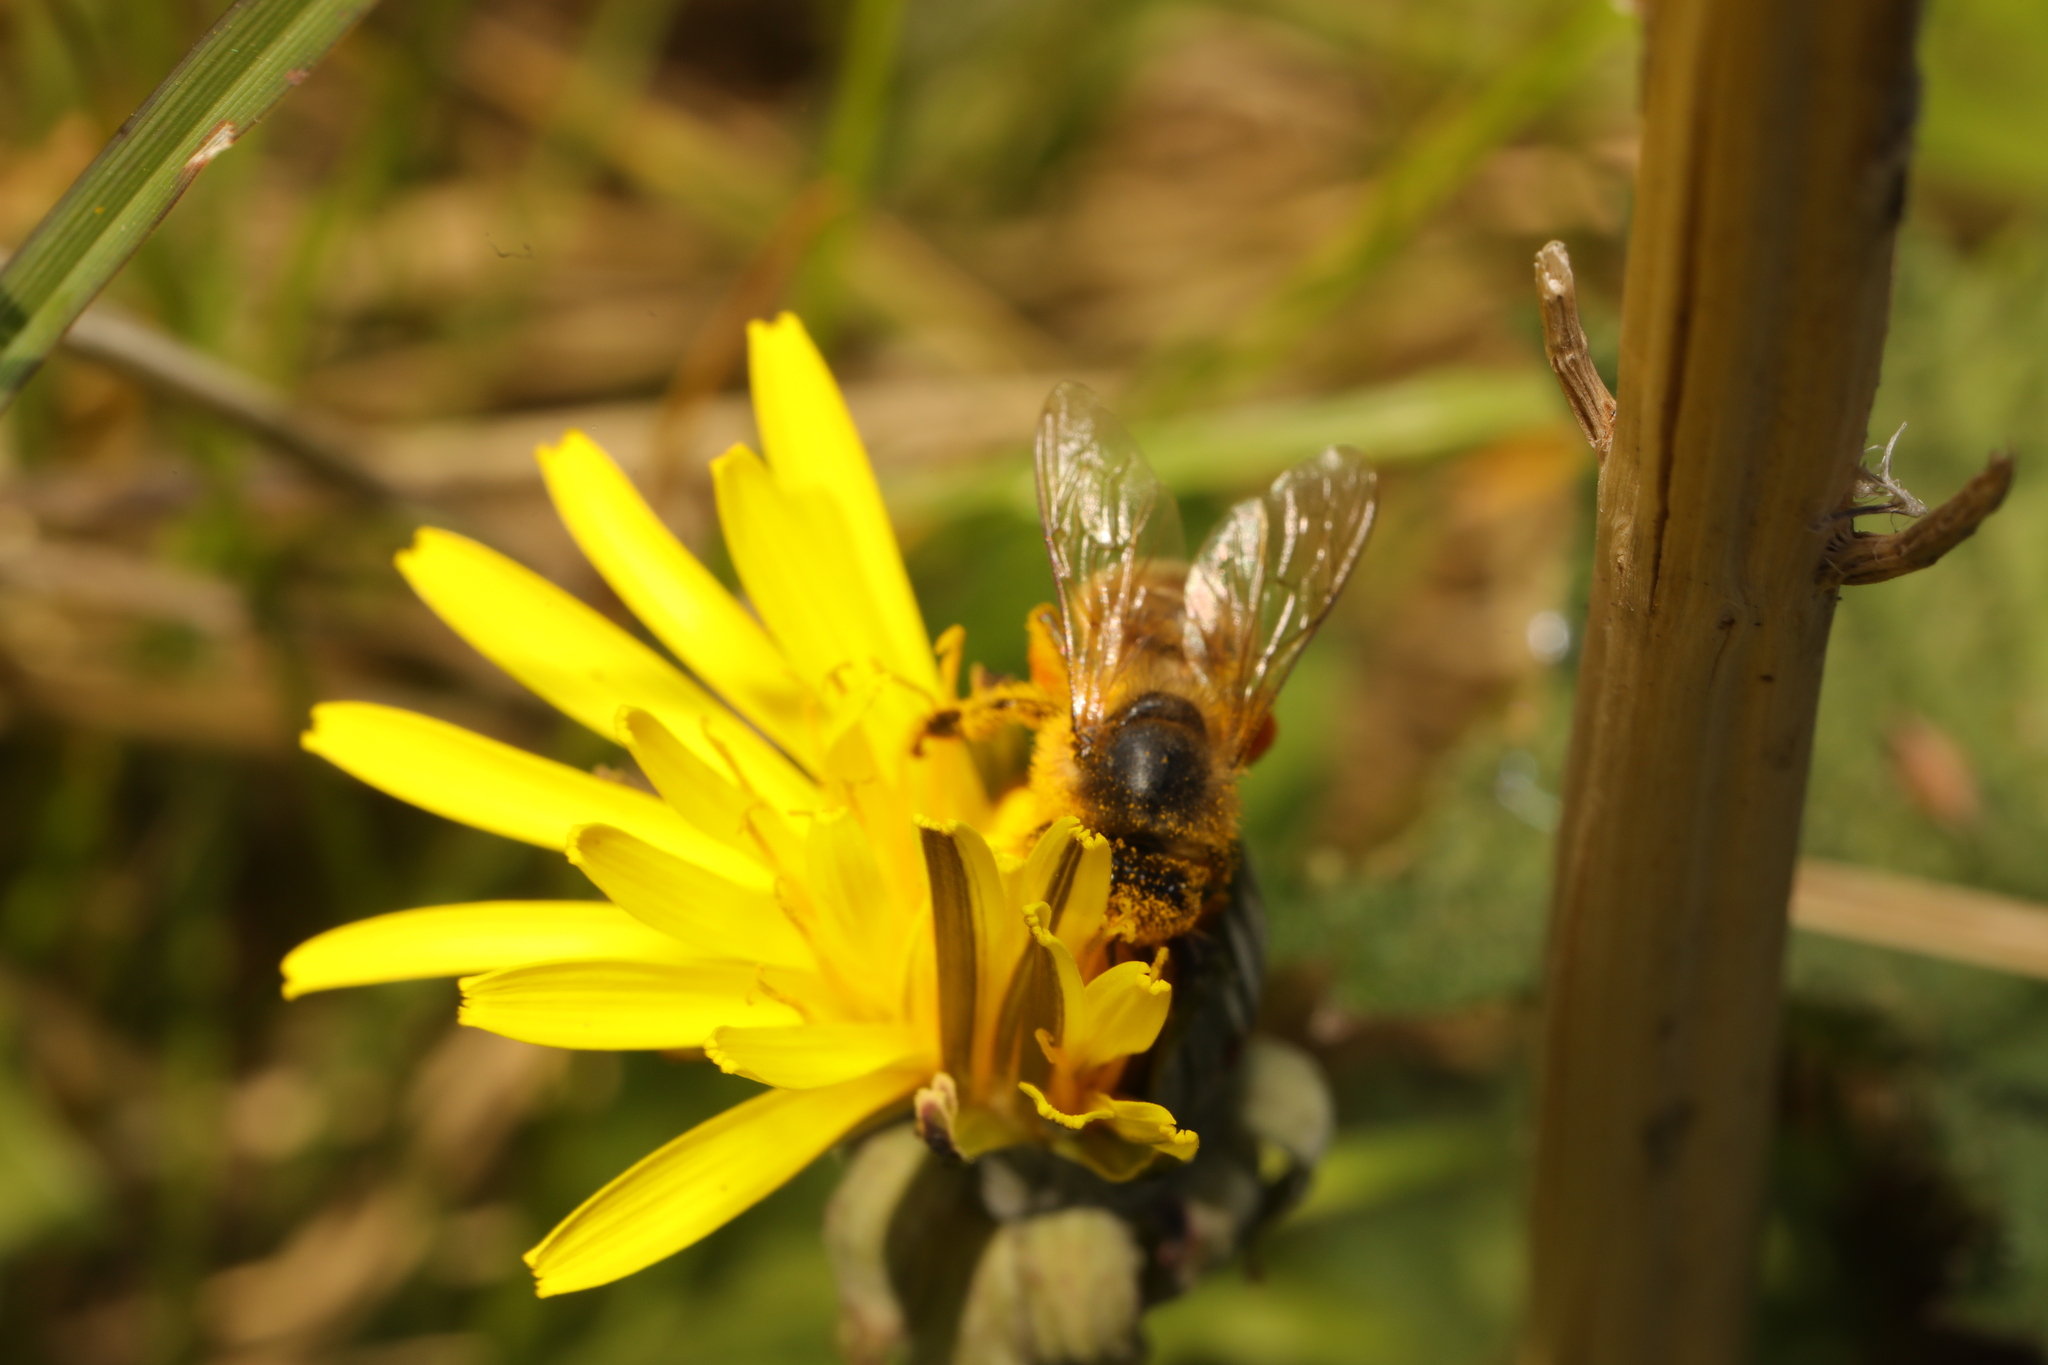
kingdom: Animalia
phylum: Arthropoda
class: Insecta
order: Hymenoptera
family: Apidae
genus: Apis
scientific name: Apis mellifera
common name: Honey bee
